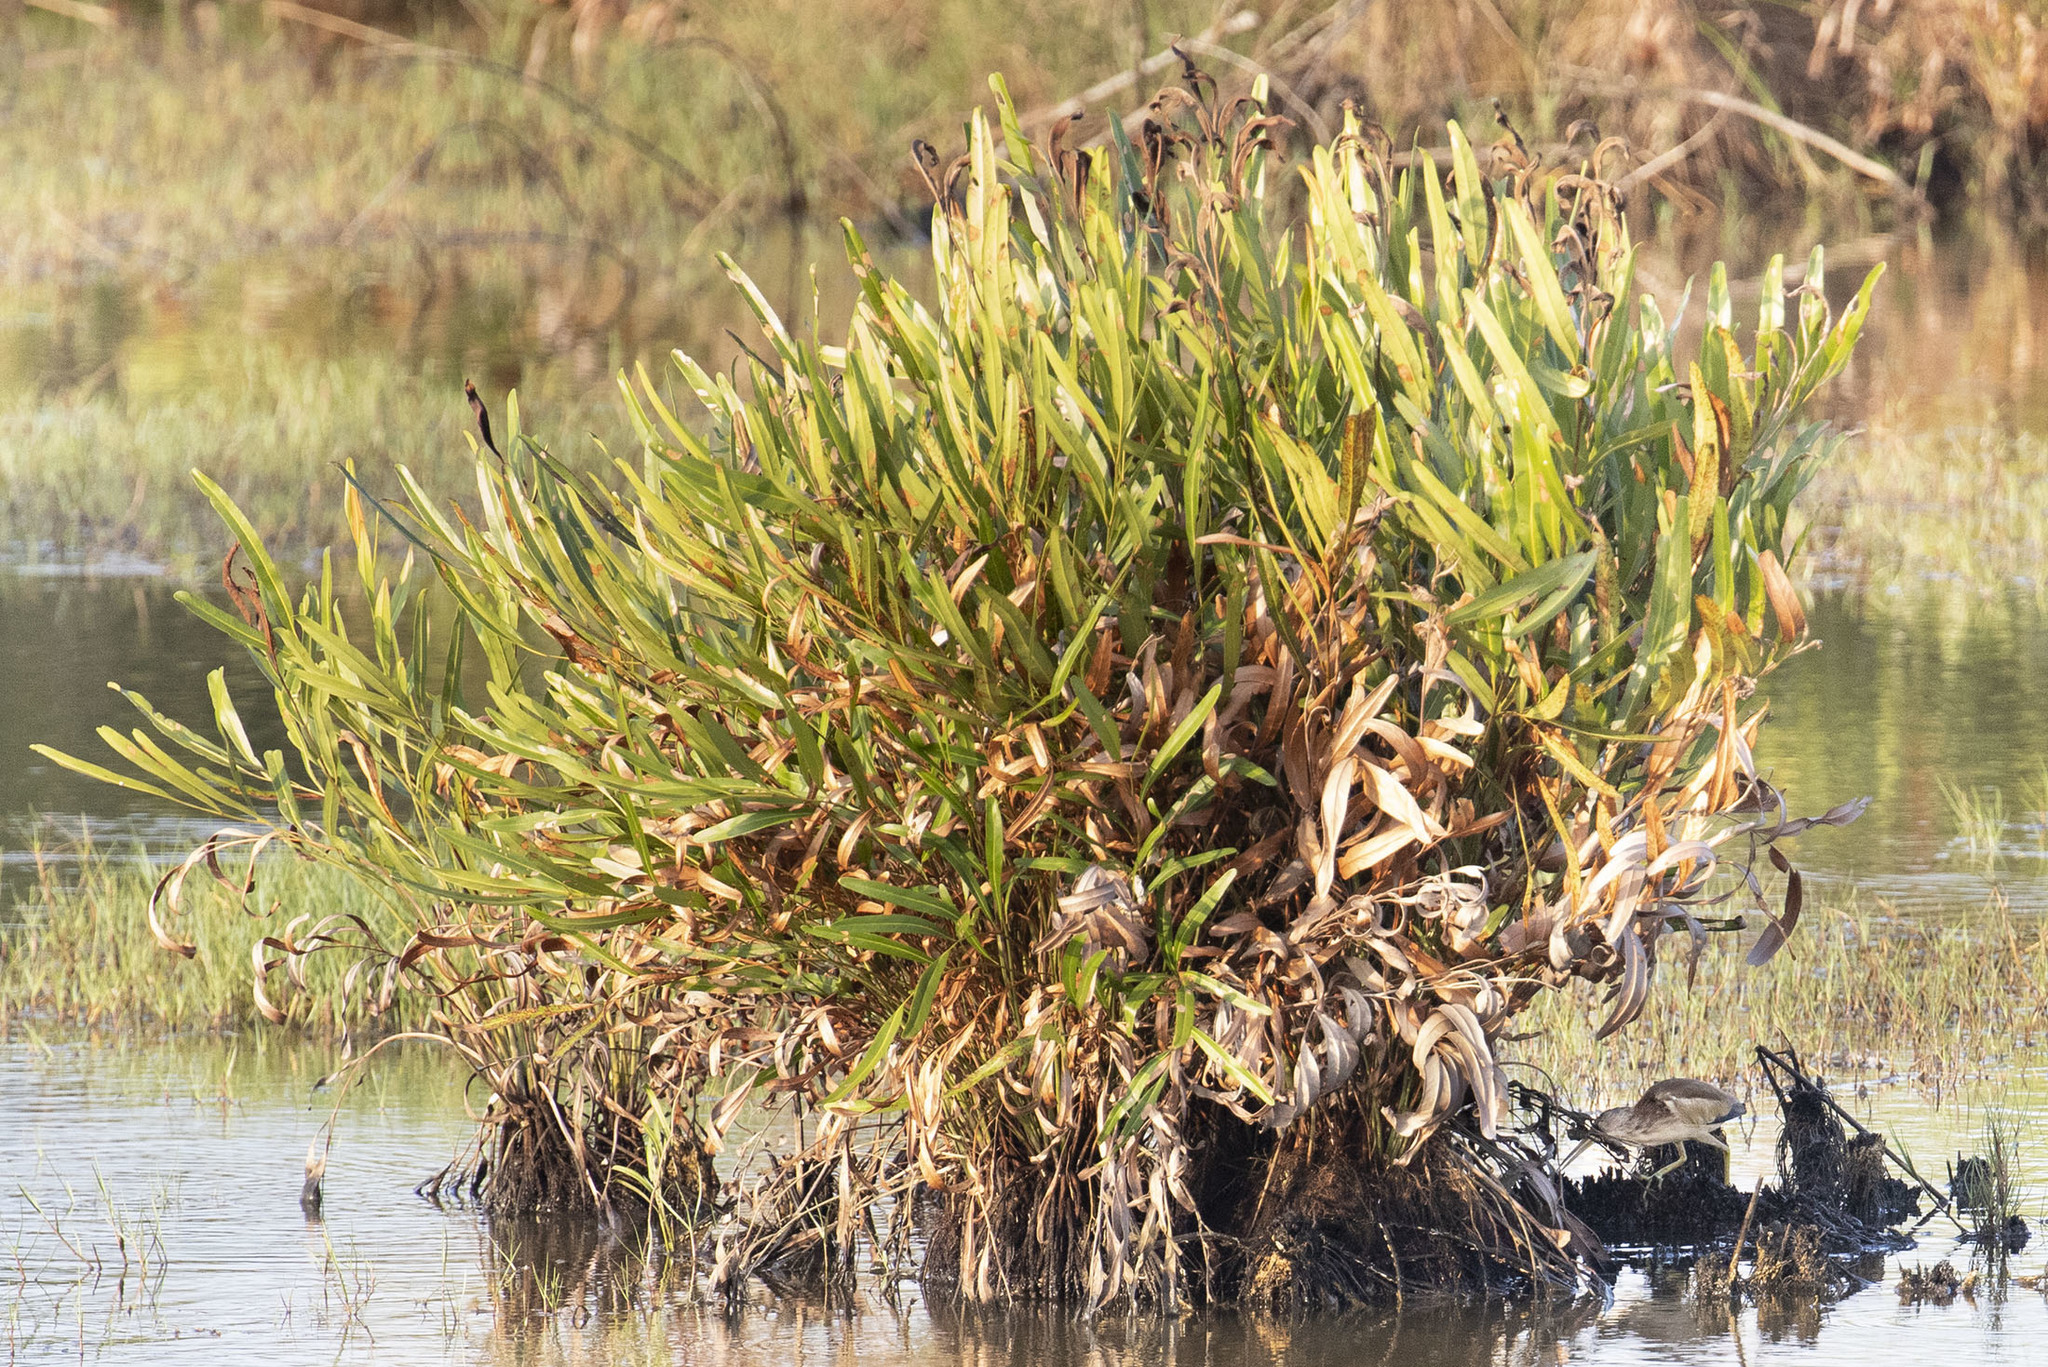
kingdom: Plantae
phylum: Tracheophyta
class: Polypodiopsida
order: Polypodiales
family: Pteridaceae
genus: Acrostichum
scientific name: Acrostichum aureum
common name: Leather fern
